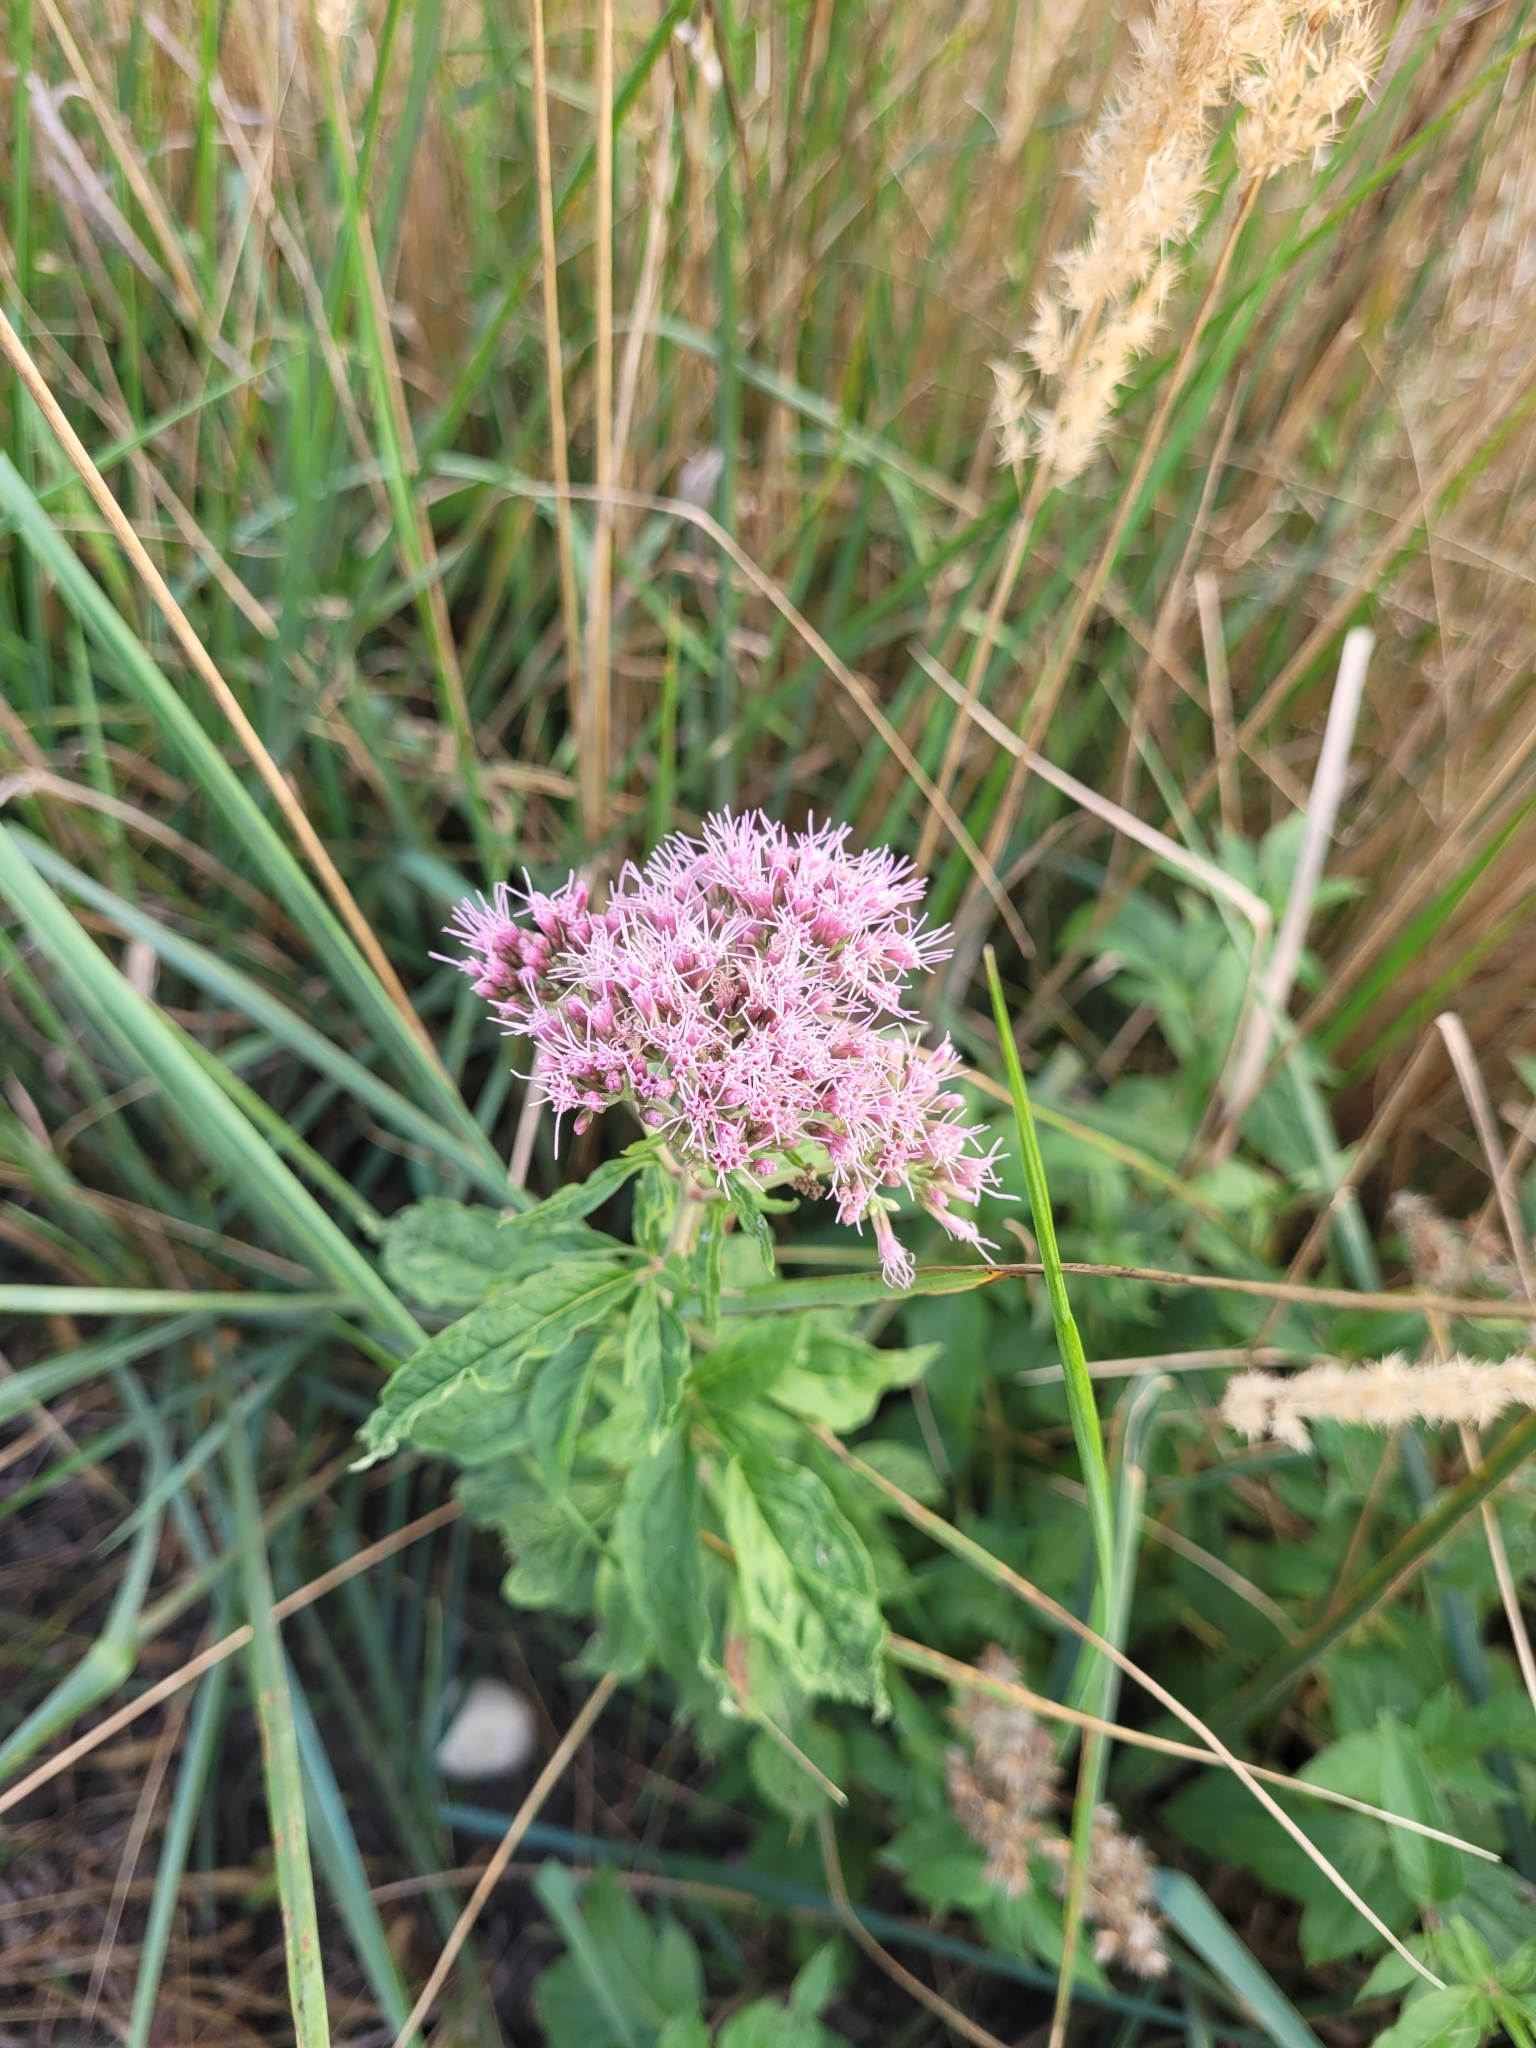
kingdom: Plantae
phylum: Tracheophyta
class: Magnoliopsida
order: Asterales
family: Asteraceae
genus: Eupatorium
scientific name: Eupatorium cannabinum
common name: Hemp-agrimony
